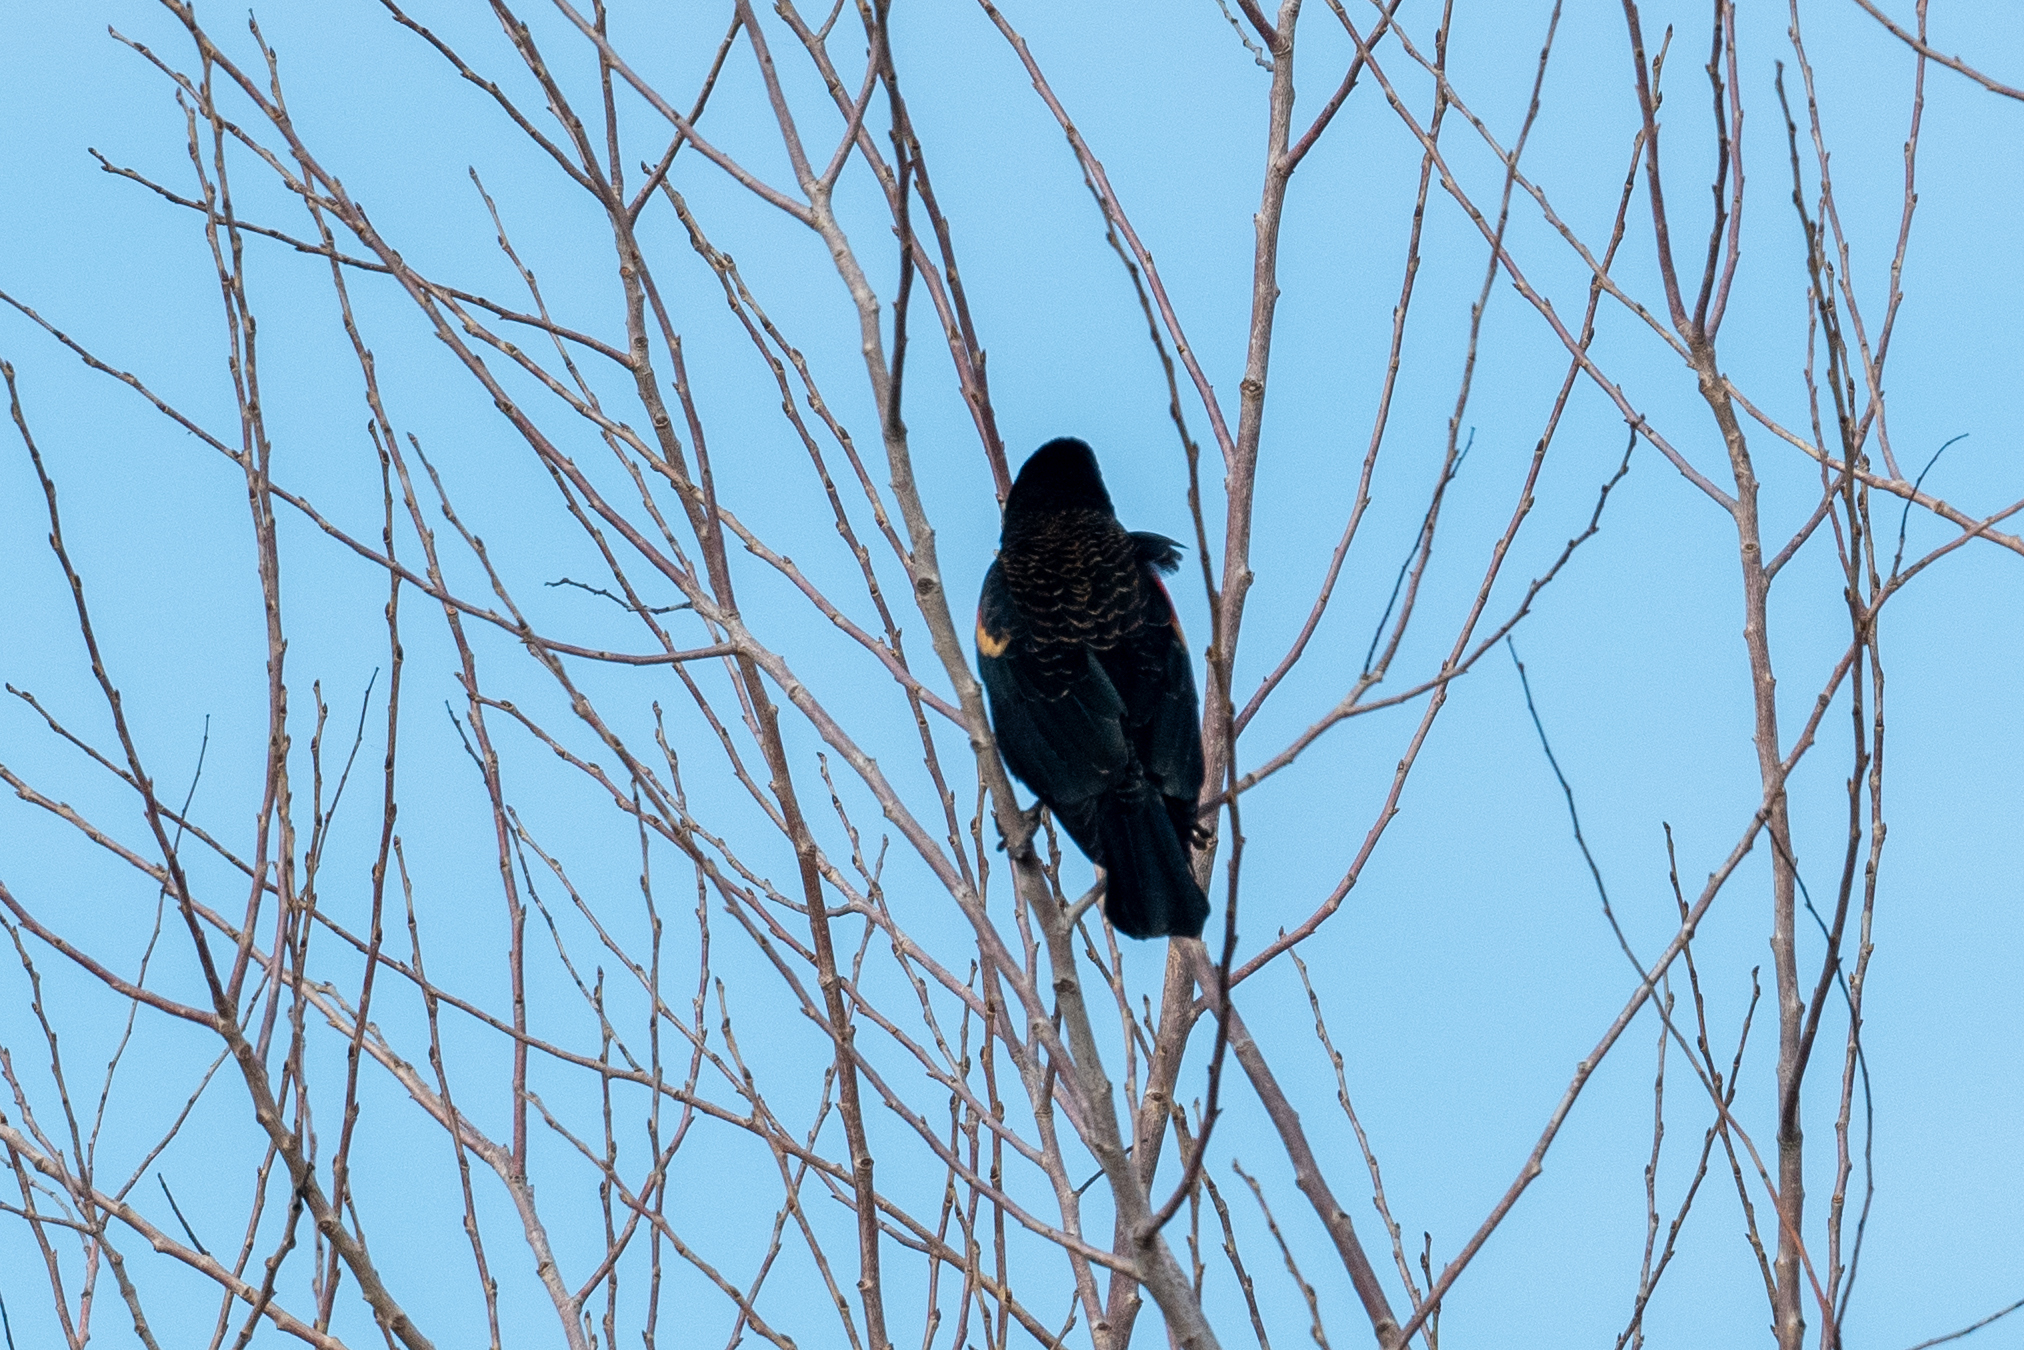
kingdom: Animalia
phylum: Chordata
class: Aves
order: Passeriformes
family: Icteridae
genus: Agelaius
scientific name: Agelaius phoeniceus
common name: Red-winged blackbird
